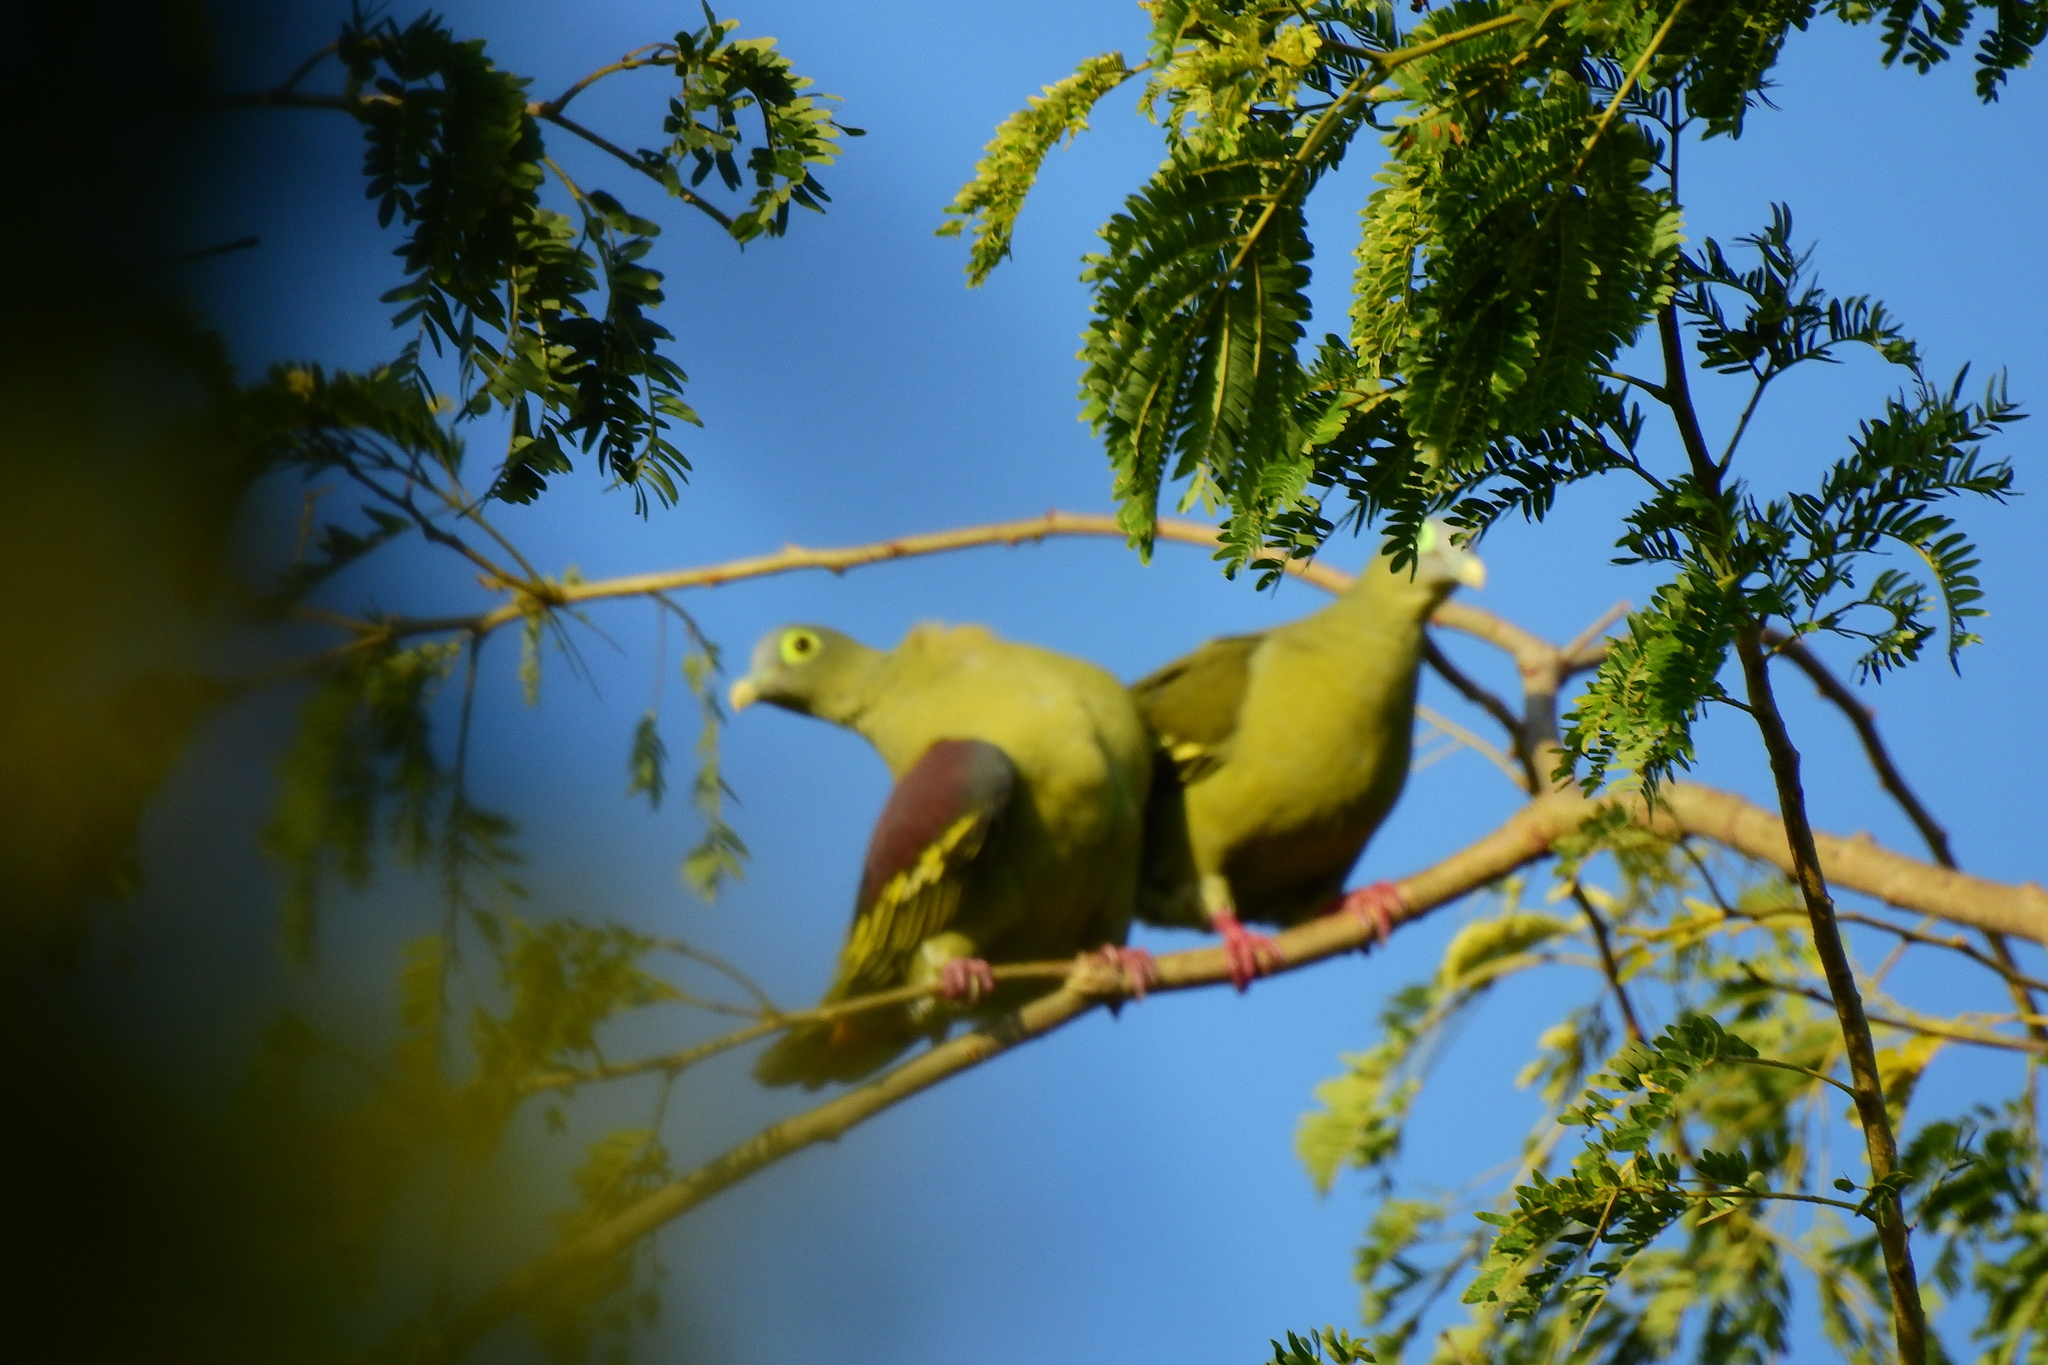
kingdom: Animalia
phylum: Chordata
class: Aves
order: Columbiformes
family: Columbidae
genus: Treron
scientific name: Treron griseicauda
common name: Grey-cheeked green pigeon
